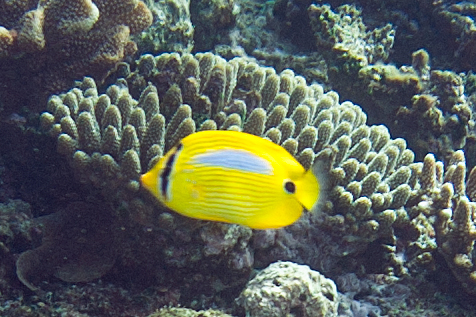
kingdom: Animalia
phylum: Chordata
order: Perciformes
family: Chaetodontidae
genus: Chaetodon
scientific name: Chaetodon plebeius
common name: Bluespot butterflyfish
